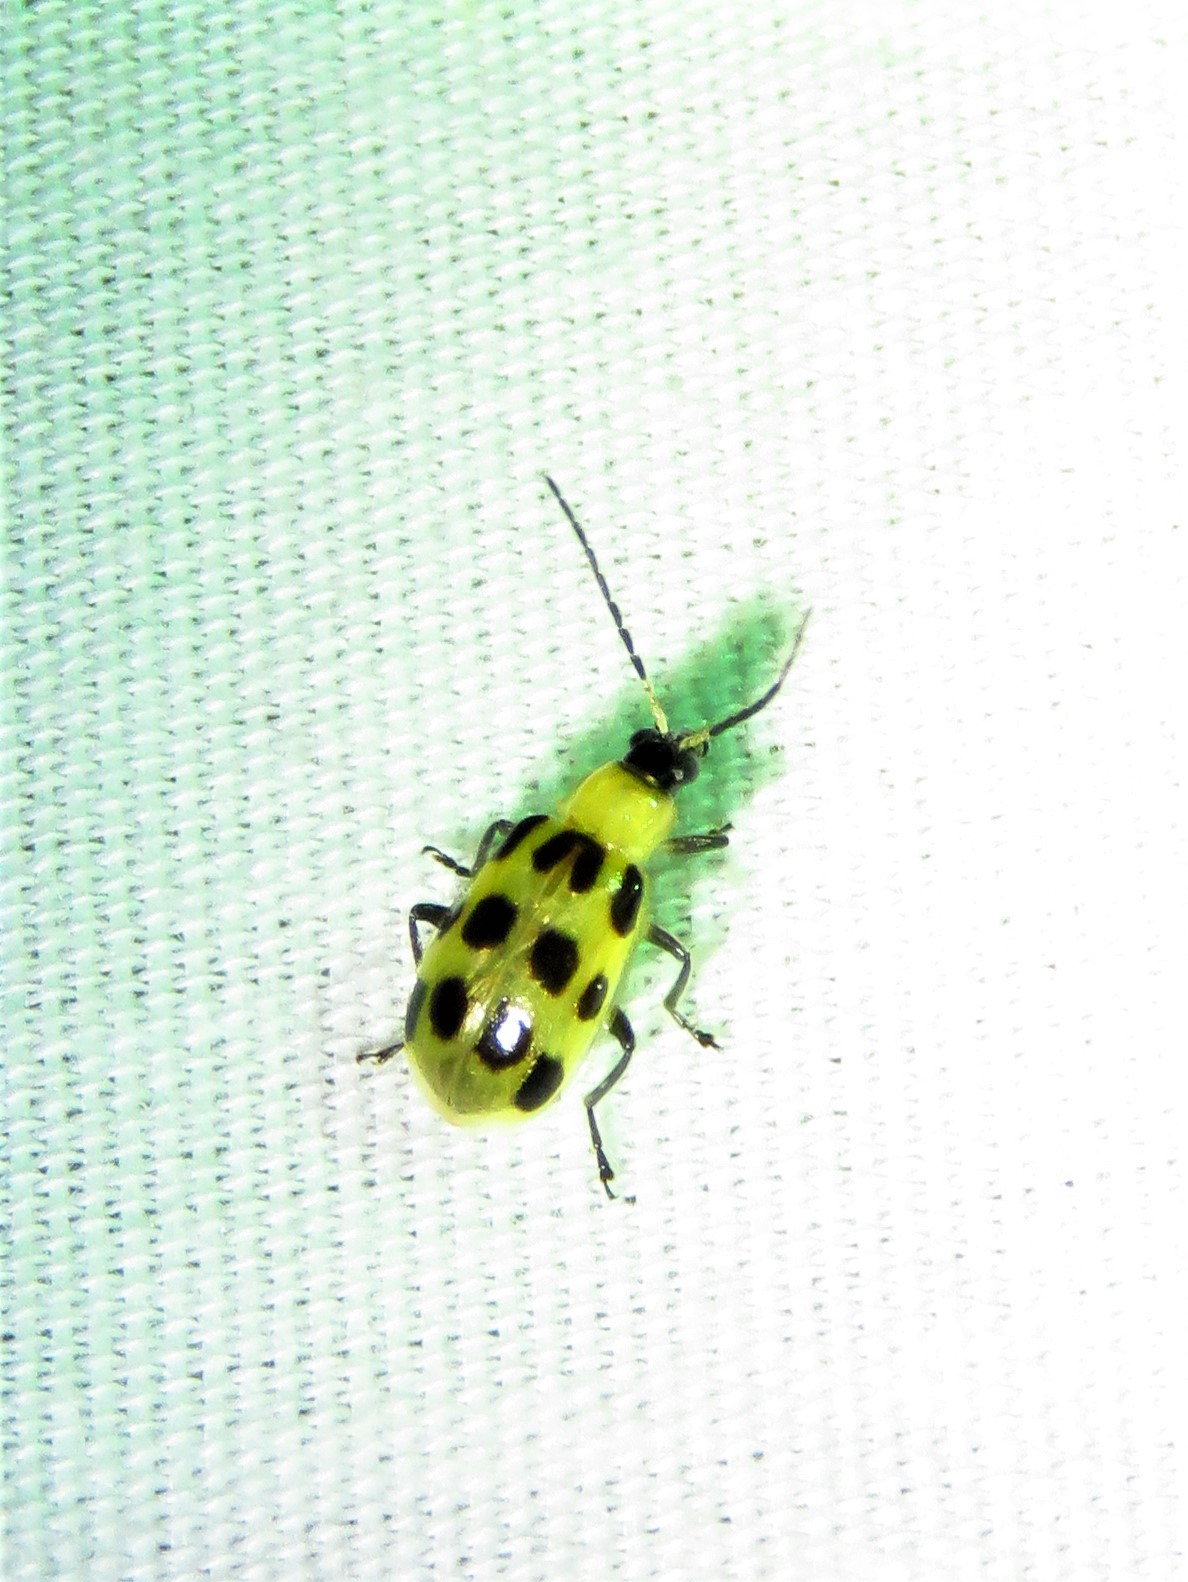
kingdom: Animalia
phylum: Arthropoda
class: Insecta
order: Coleoptera
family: Chrysomelidae
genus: Diabrotica
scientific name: Diabrotica undecimpunctata
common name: Spotted cucumber beetle
